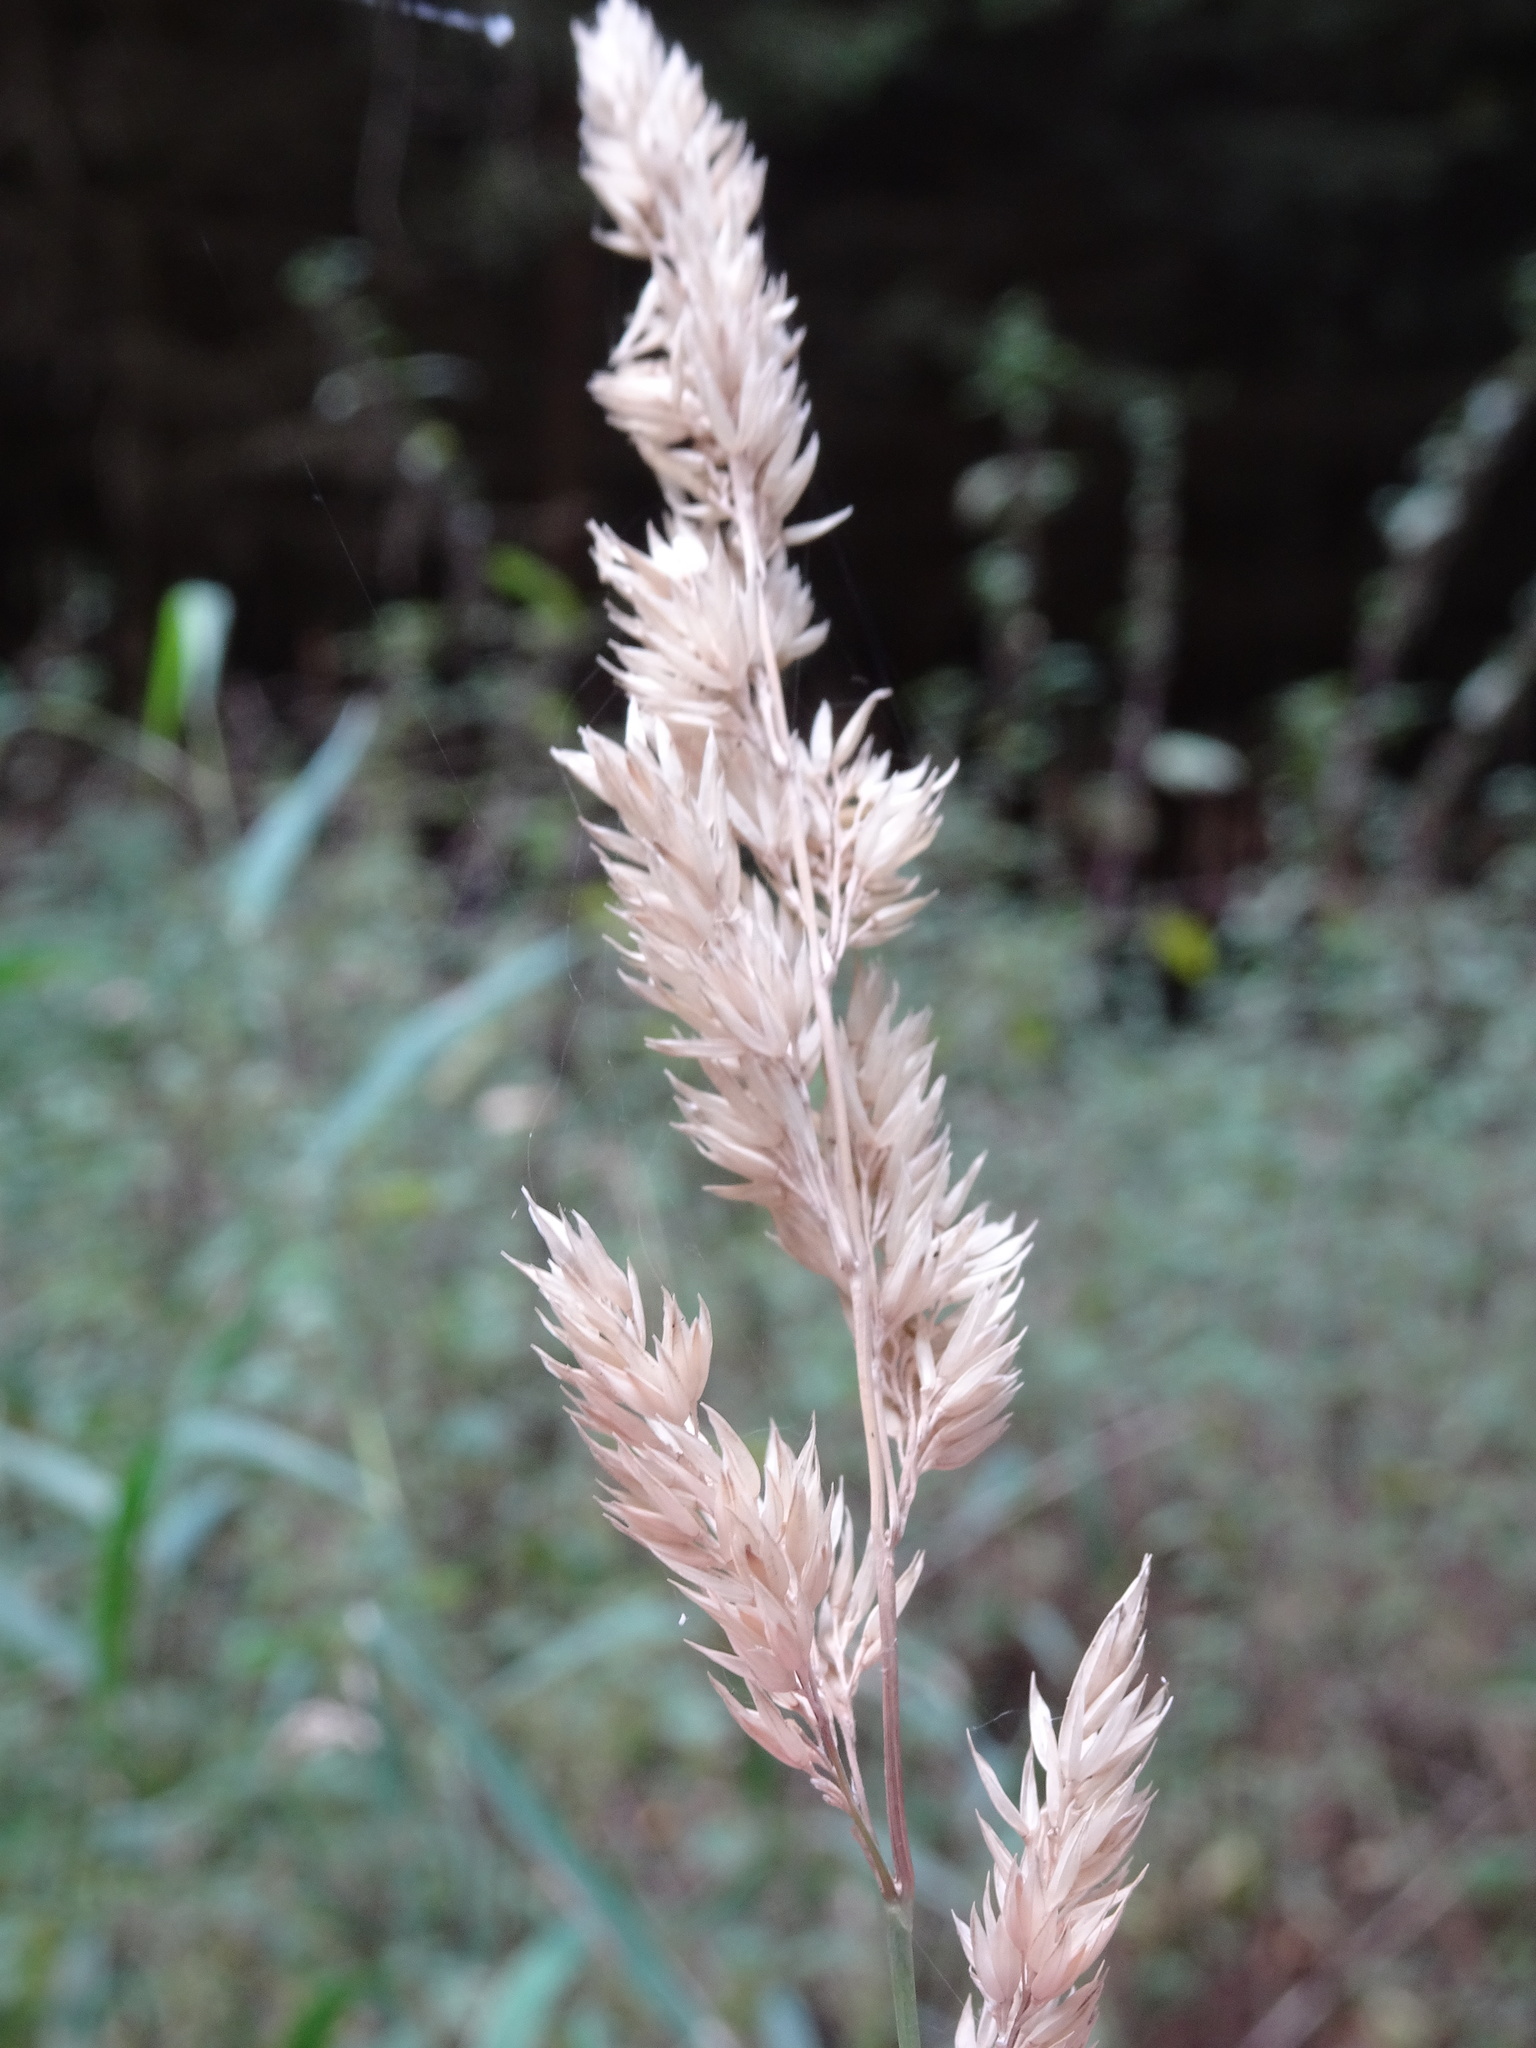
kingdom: Plantae
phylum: Tracheophyta
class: Liliopsida
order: Poales
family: Poaceae
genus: Phalaris
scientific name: Phalaris arundinacea
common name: Reed canary-grass
